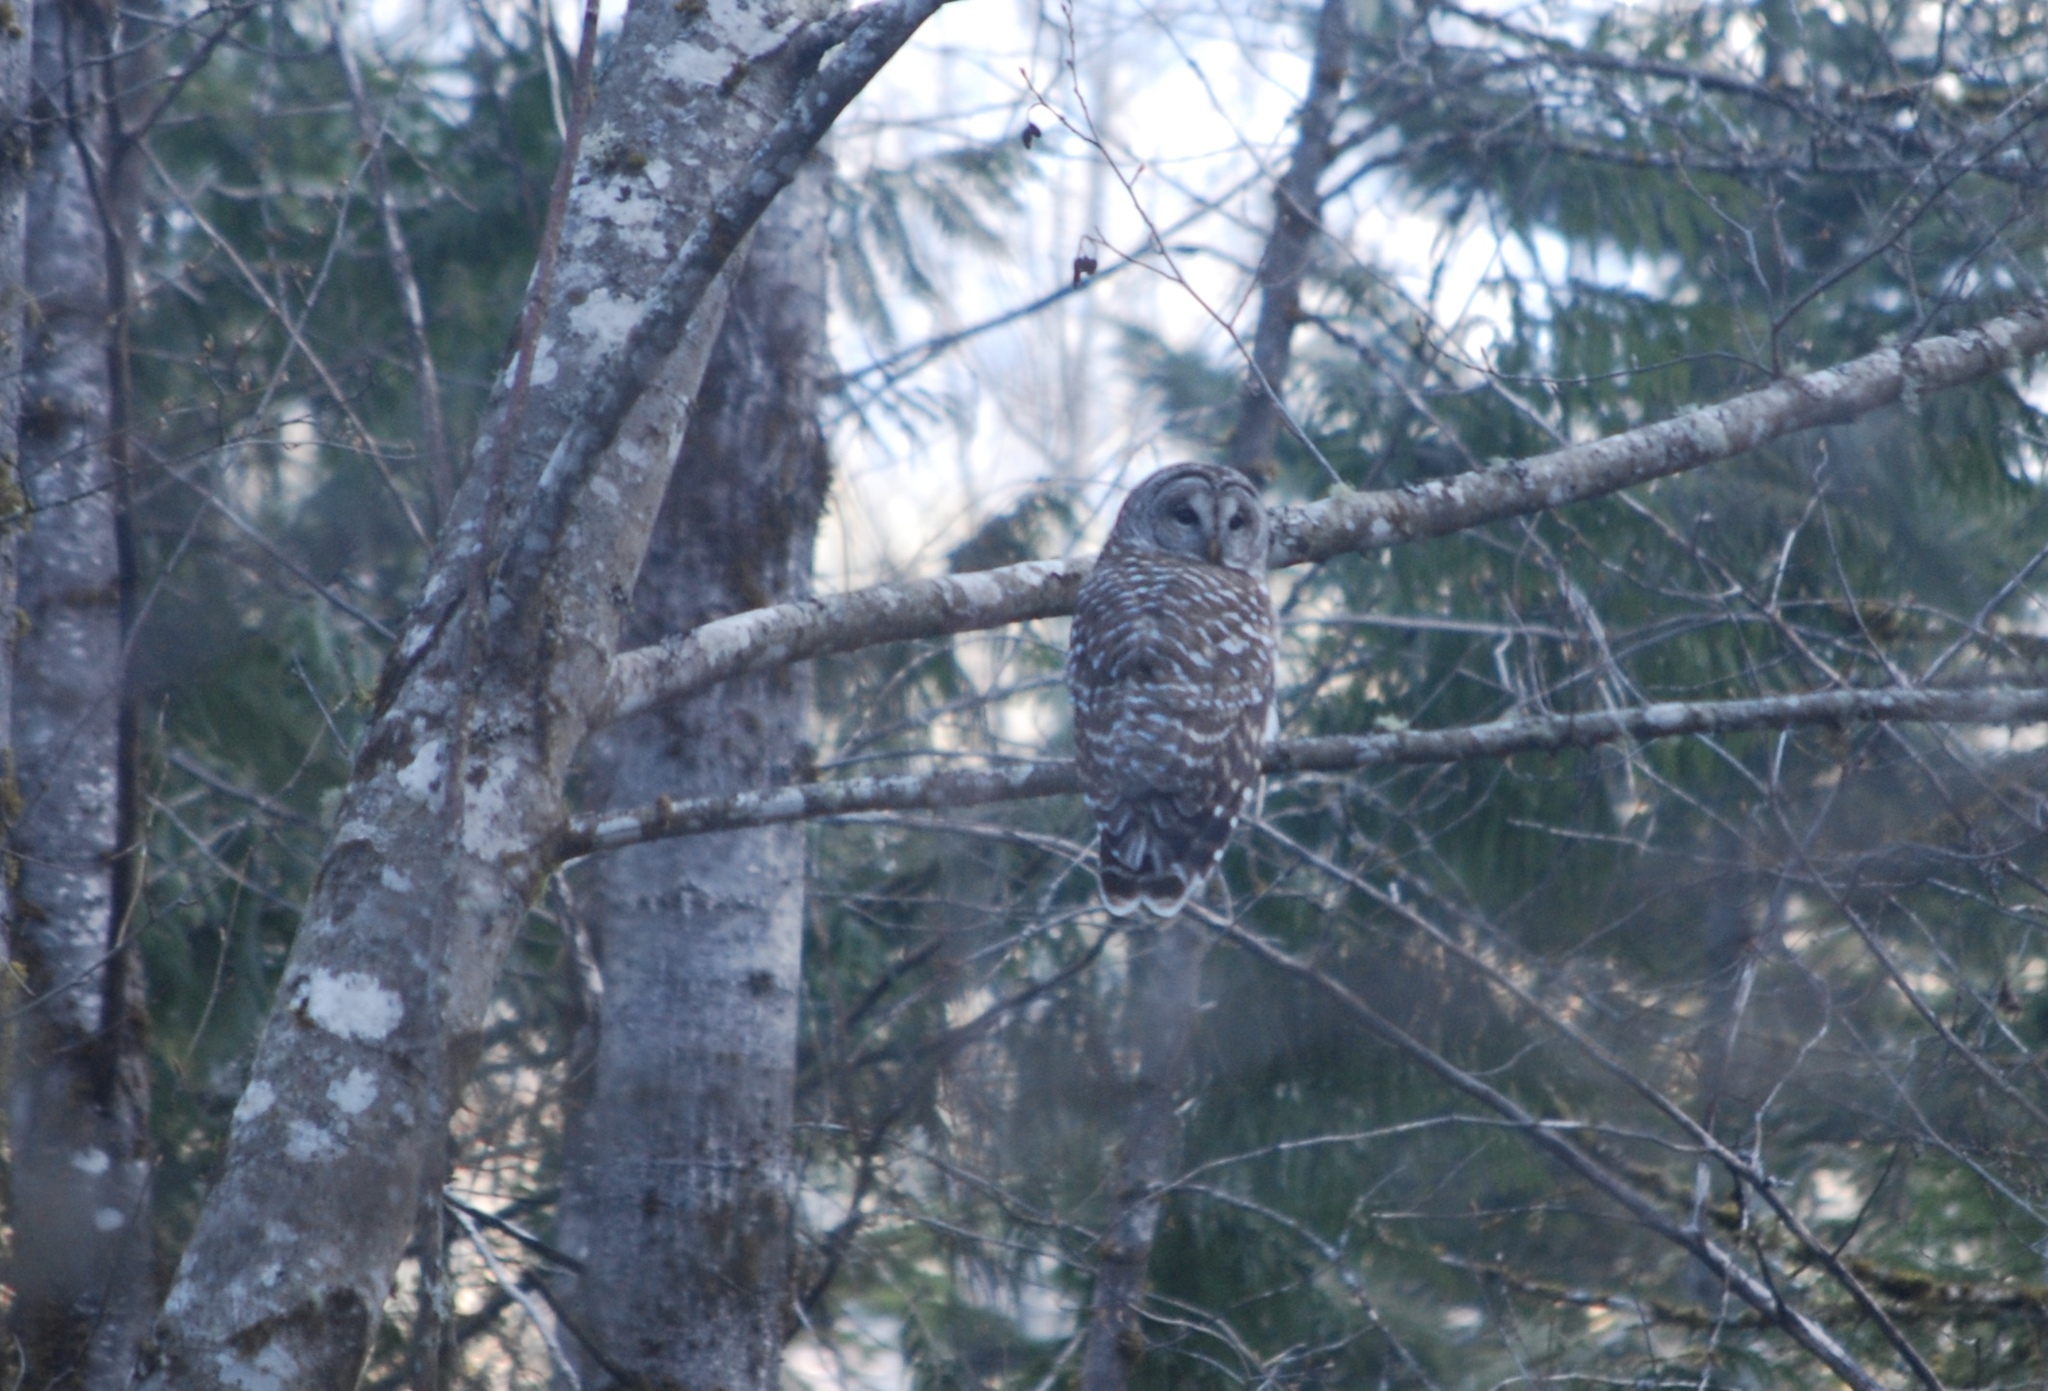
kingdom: Animalia
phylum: Chordata
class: Aves
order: Strigiformes
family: Strigidae
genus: Strix
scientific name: Strix varia
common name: Barred owl
